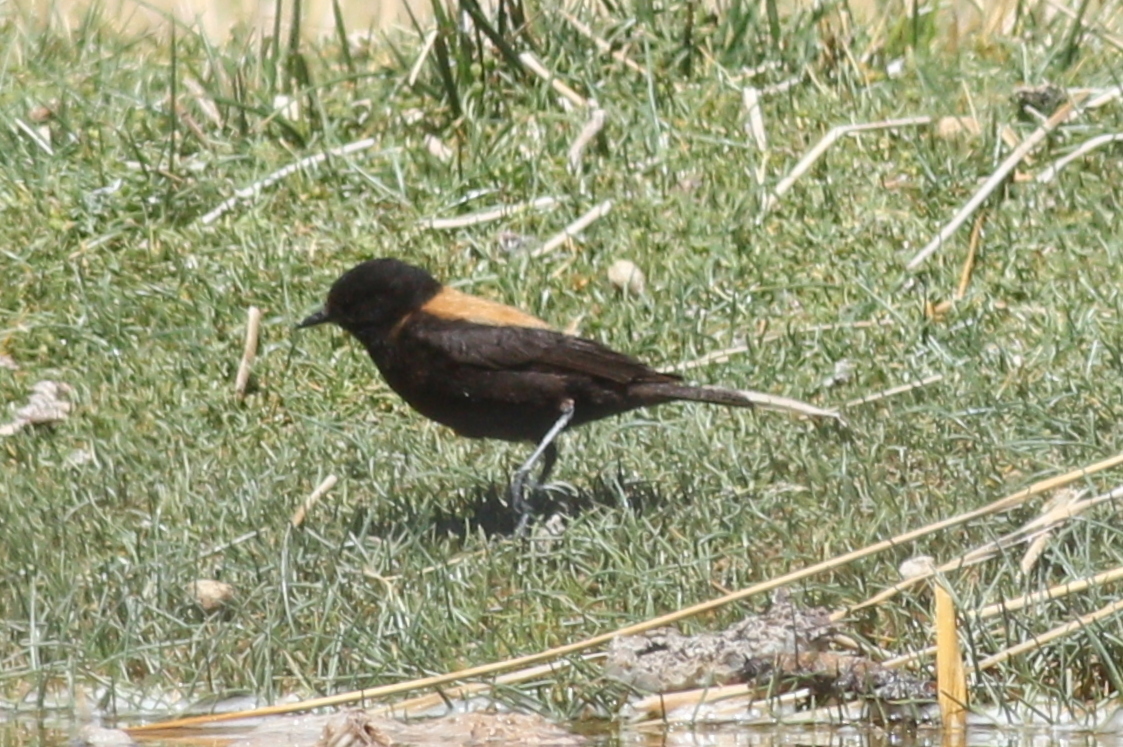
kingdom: Animalia
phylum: Chordata
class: Aves
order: Passeriformes
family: Tyrannidae
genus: Lessonia
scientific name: Lessonia oreas
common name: Andean negrito
